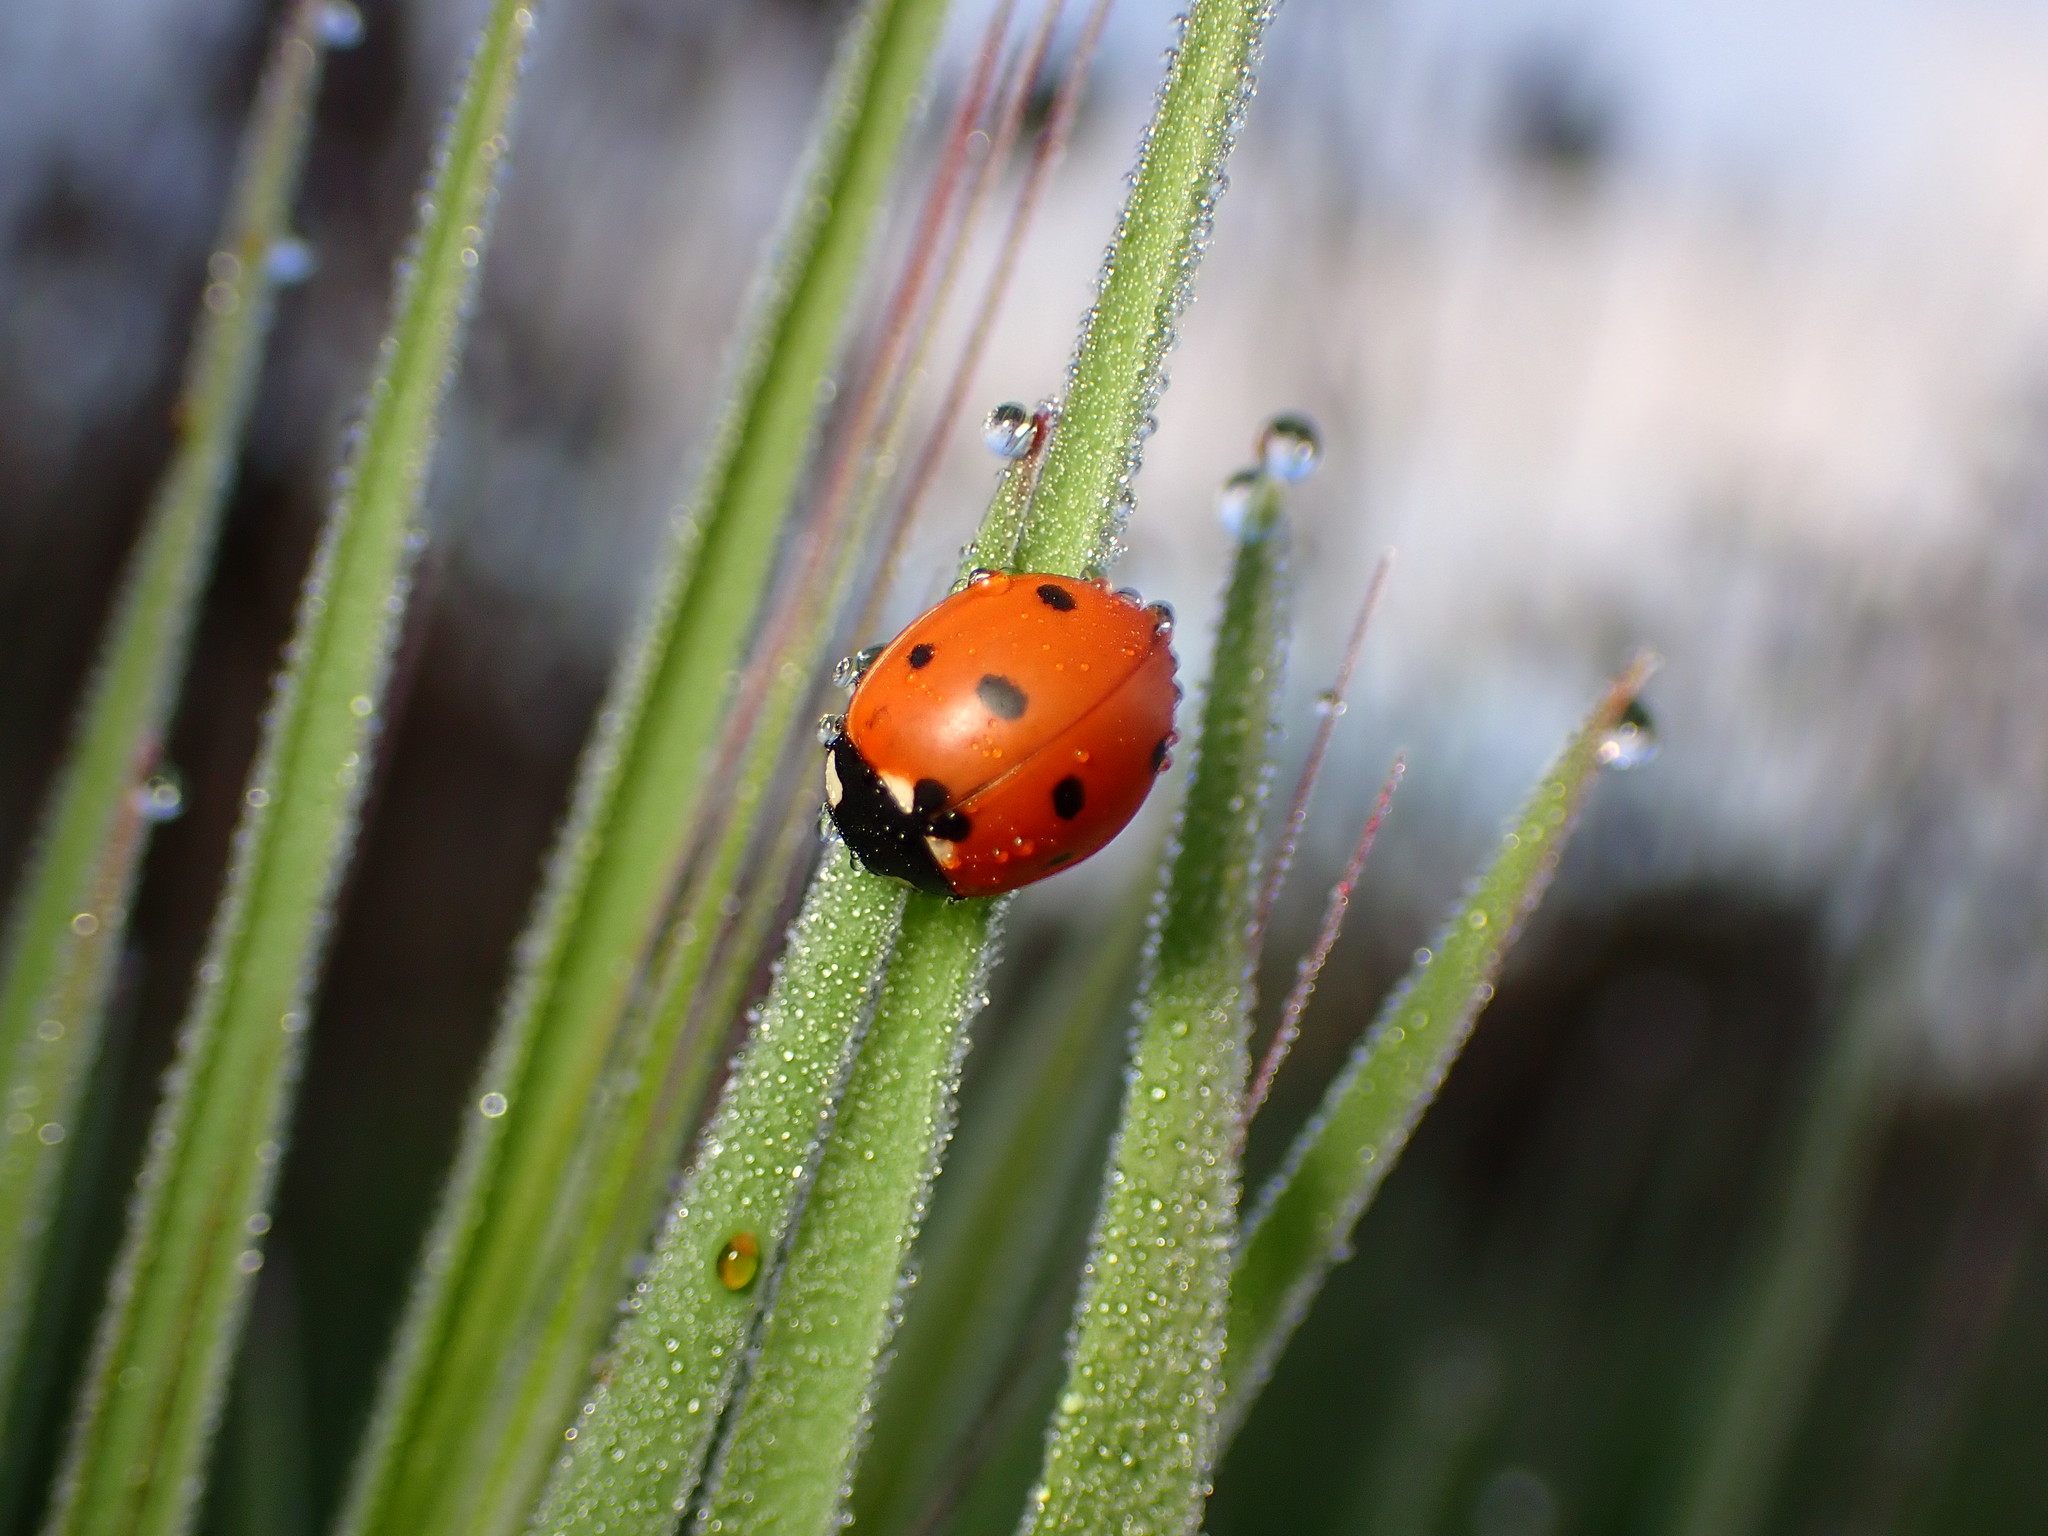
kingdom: Animalia
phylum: Arthropoda
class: Insecta
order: Coleoptera
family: Coccinellidae
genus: Coccinella
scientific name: Coccinella septempunctata
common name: Sevenspotted lady beetle
